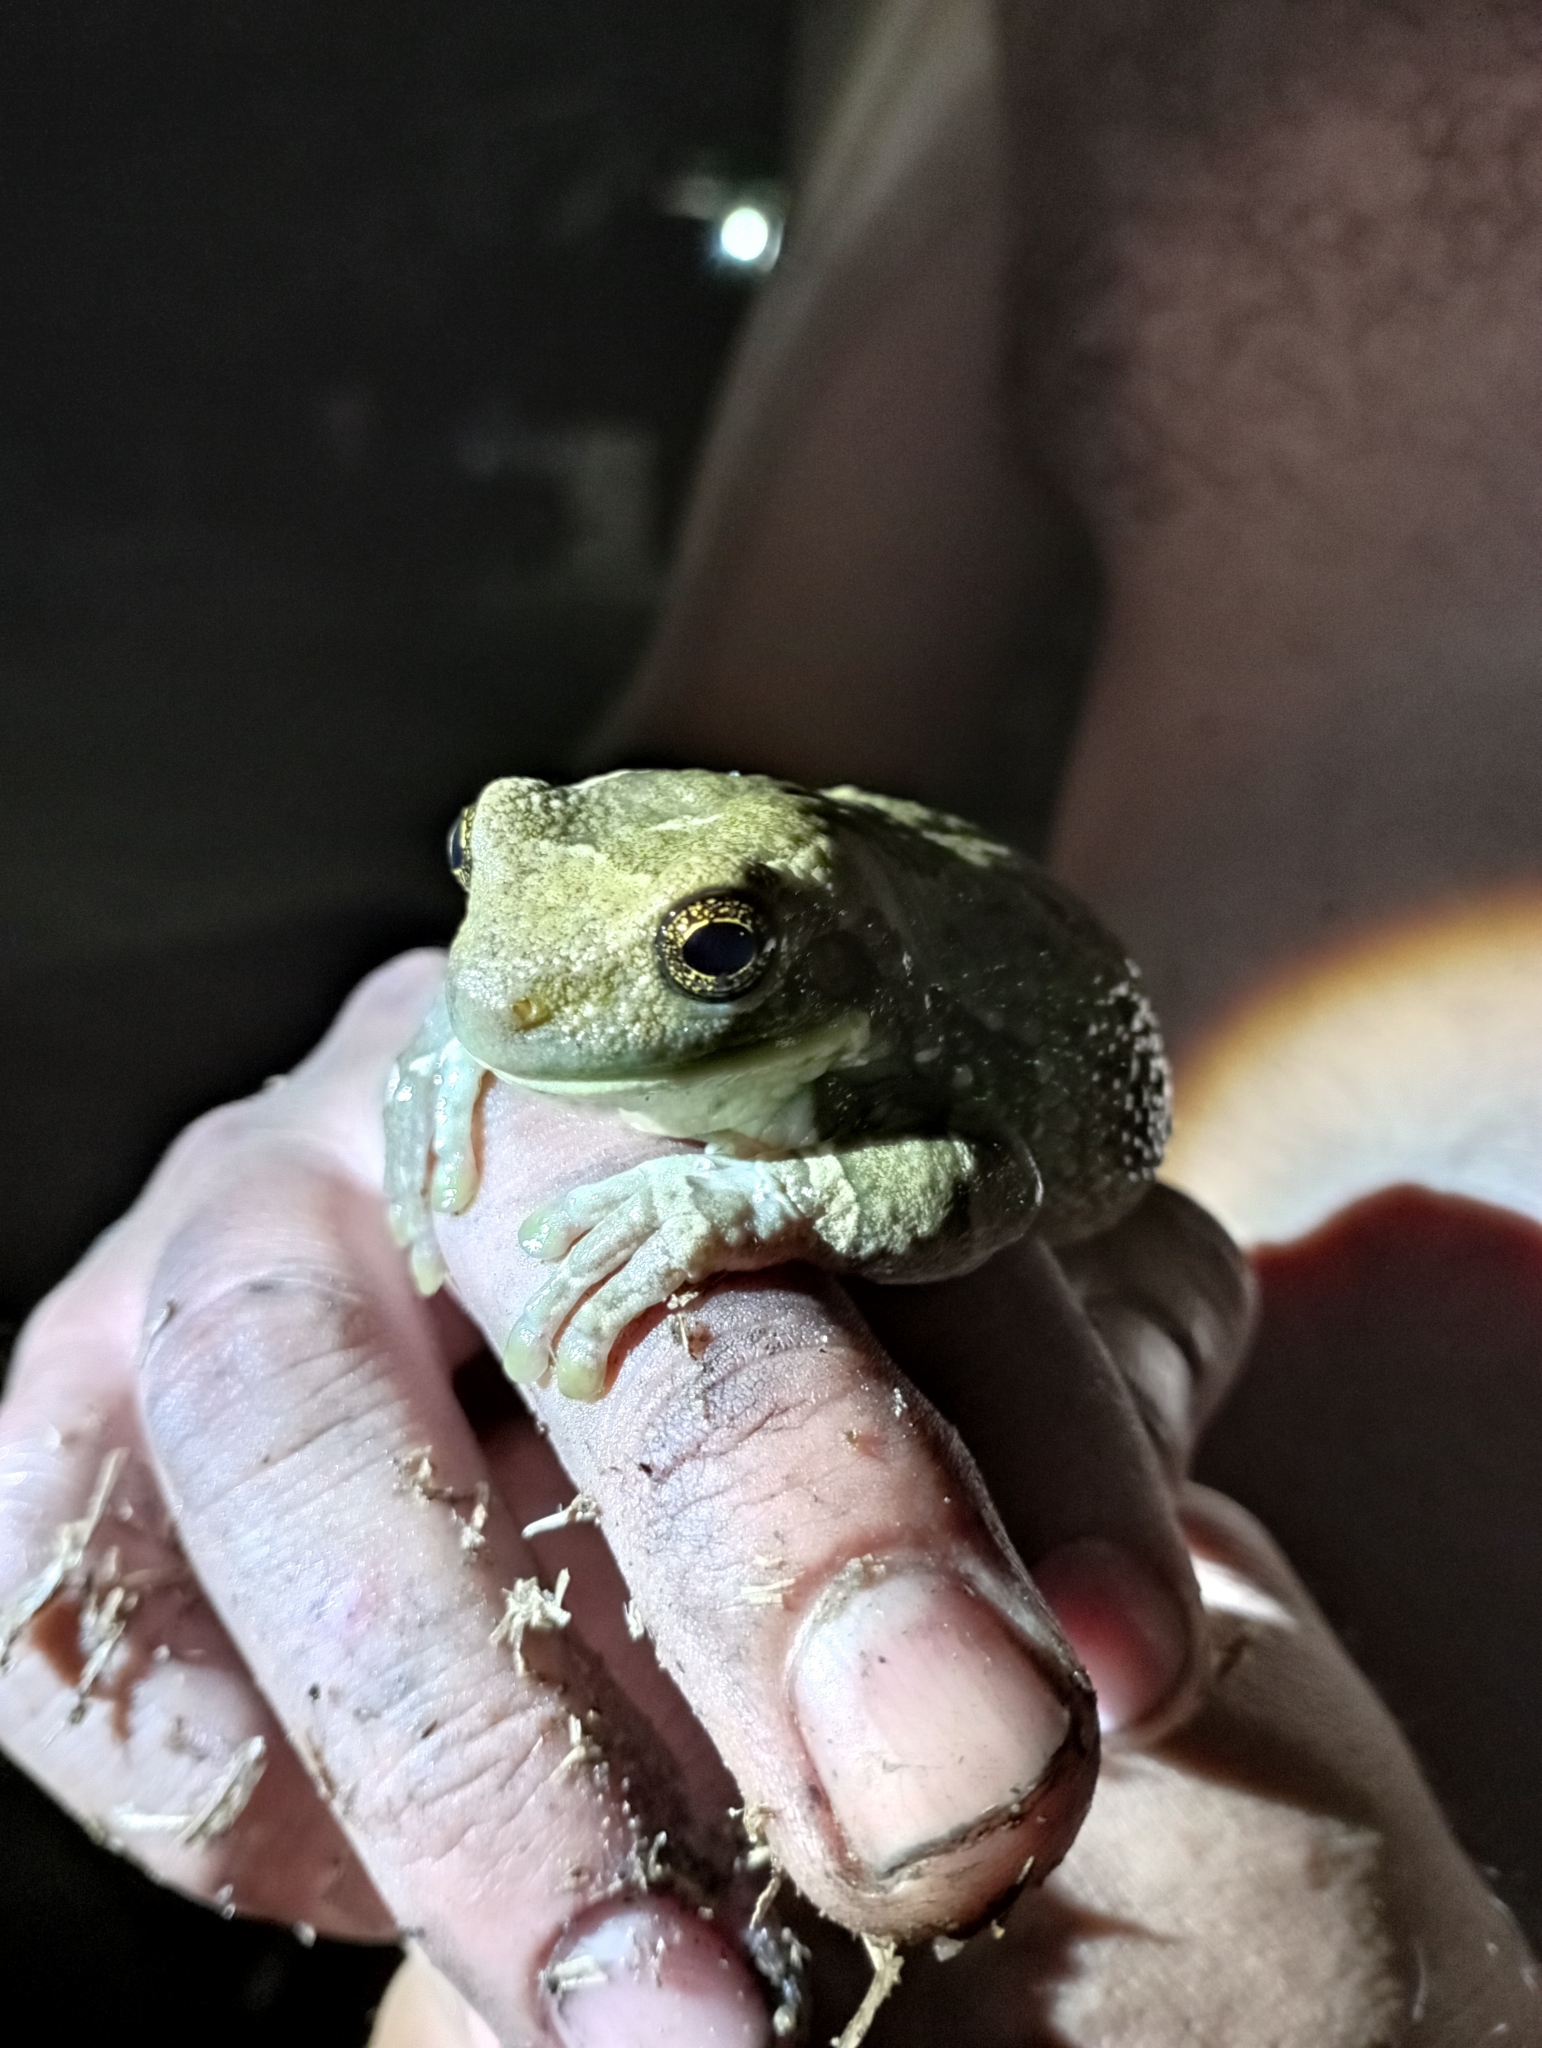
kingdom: Animalia
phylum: Chordata
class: Amphibia
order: Anura
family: Hylidae
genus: Trachycephalus
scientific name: Trachycephalus typhonius
